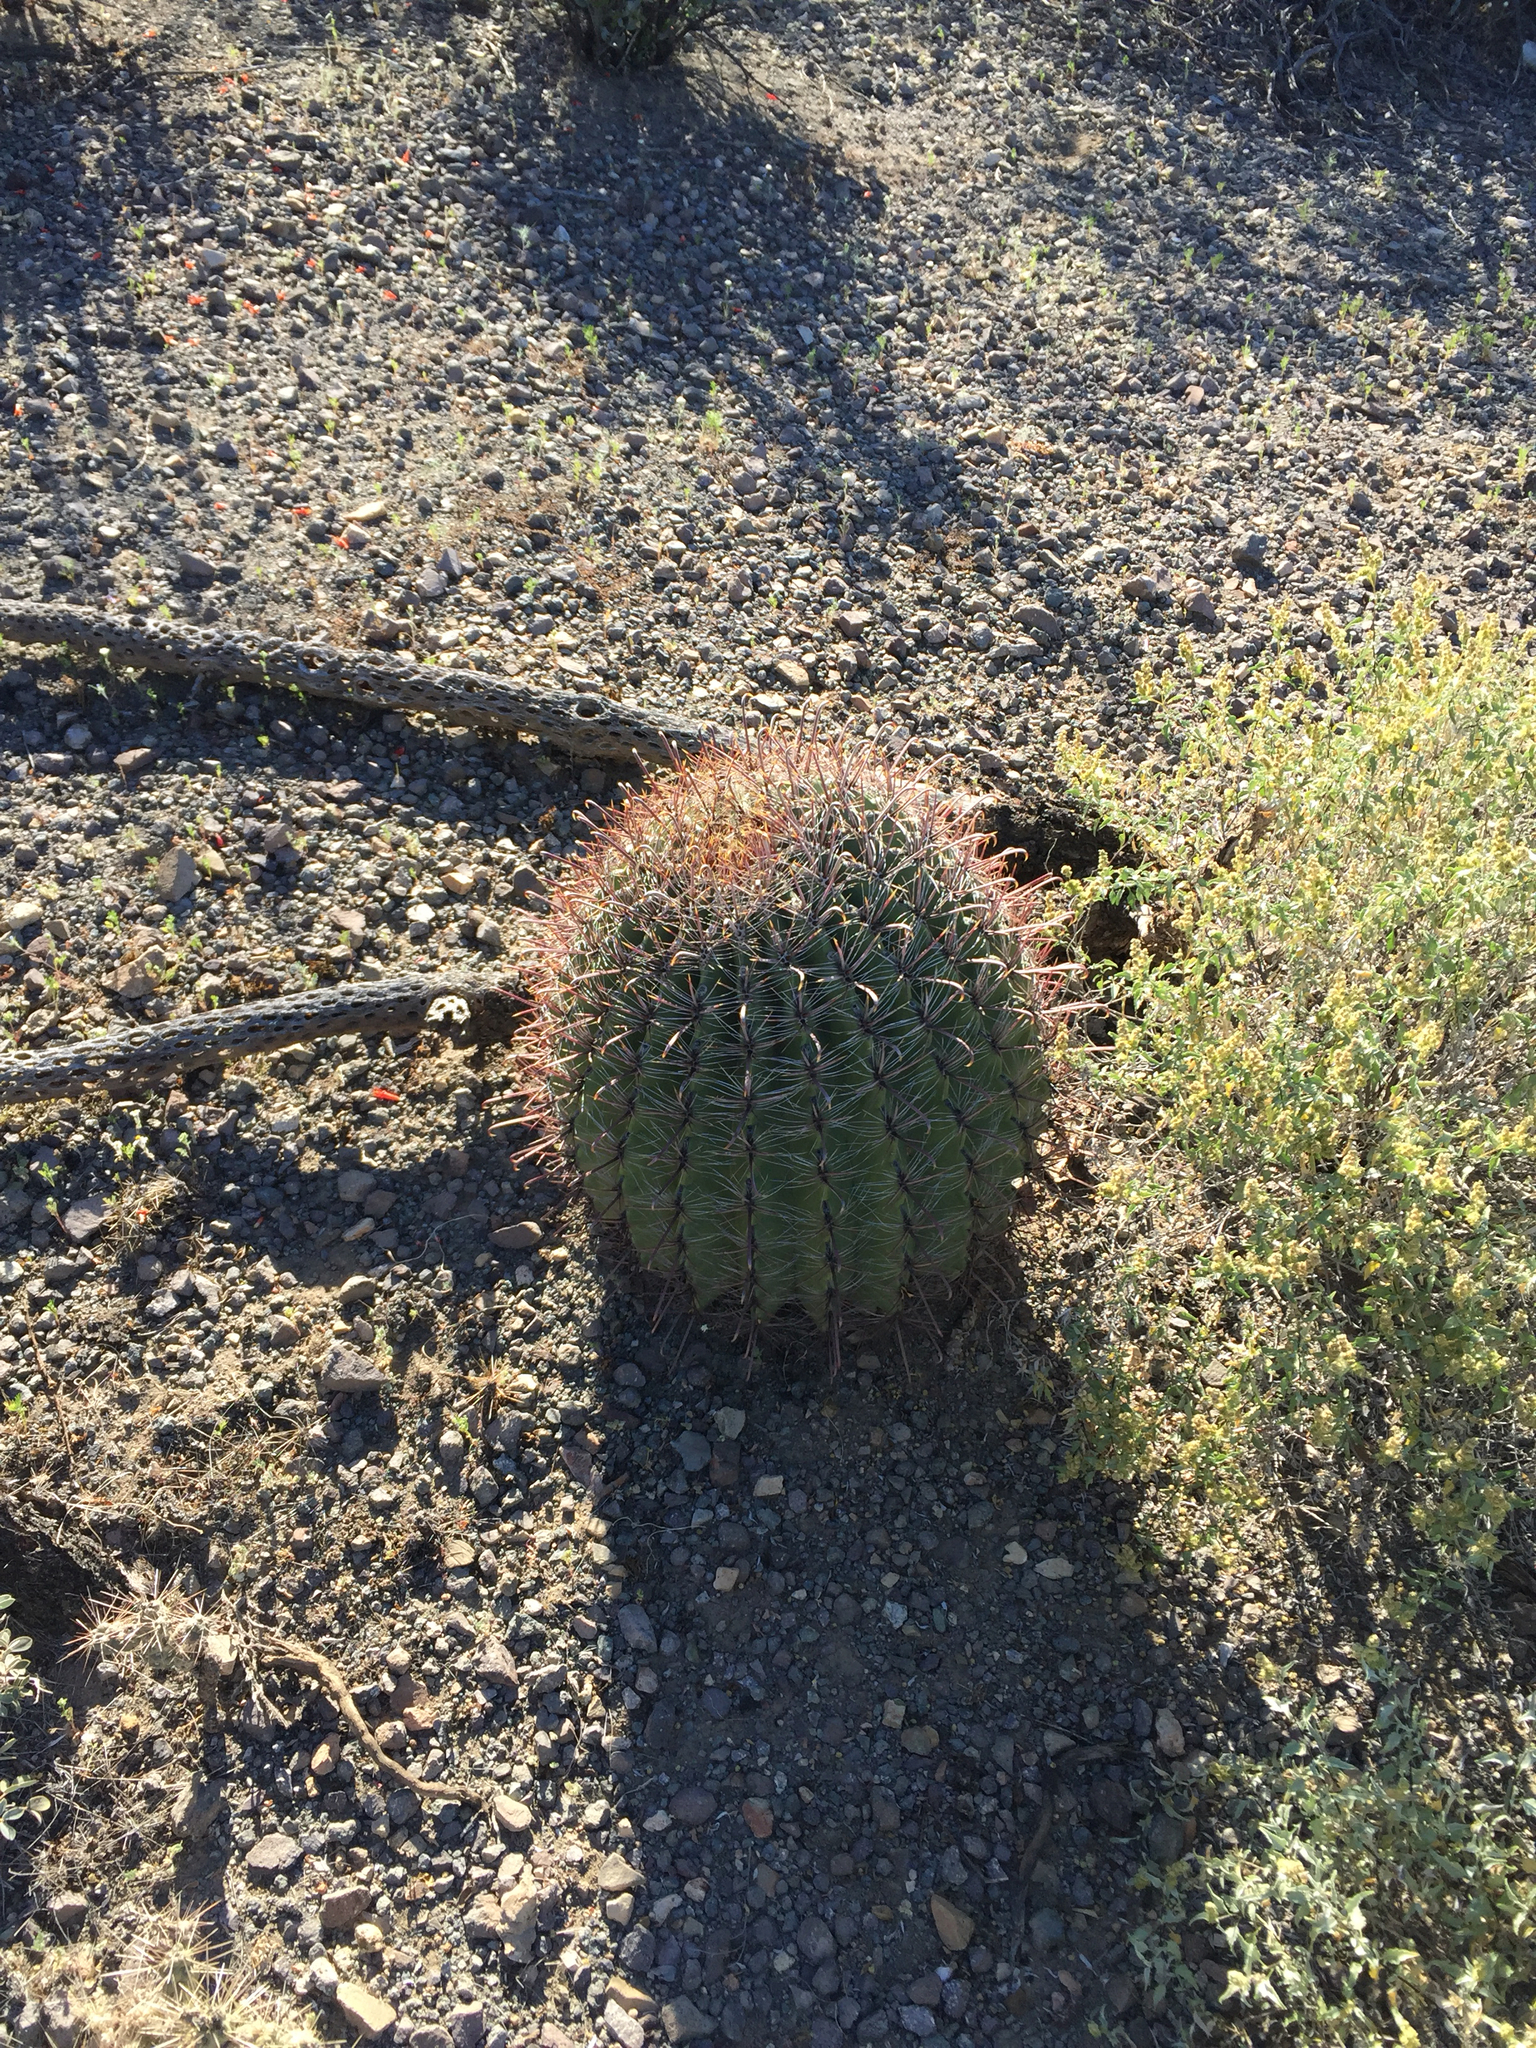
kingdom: Plantae
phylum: Tracheophyta
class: Magnoliopsida
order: Caryophyllales
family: Cactaceae
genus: Ferocactus
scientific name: Ferocactus wislizeni
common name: Candy barrel cactus
